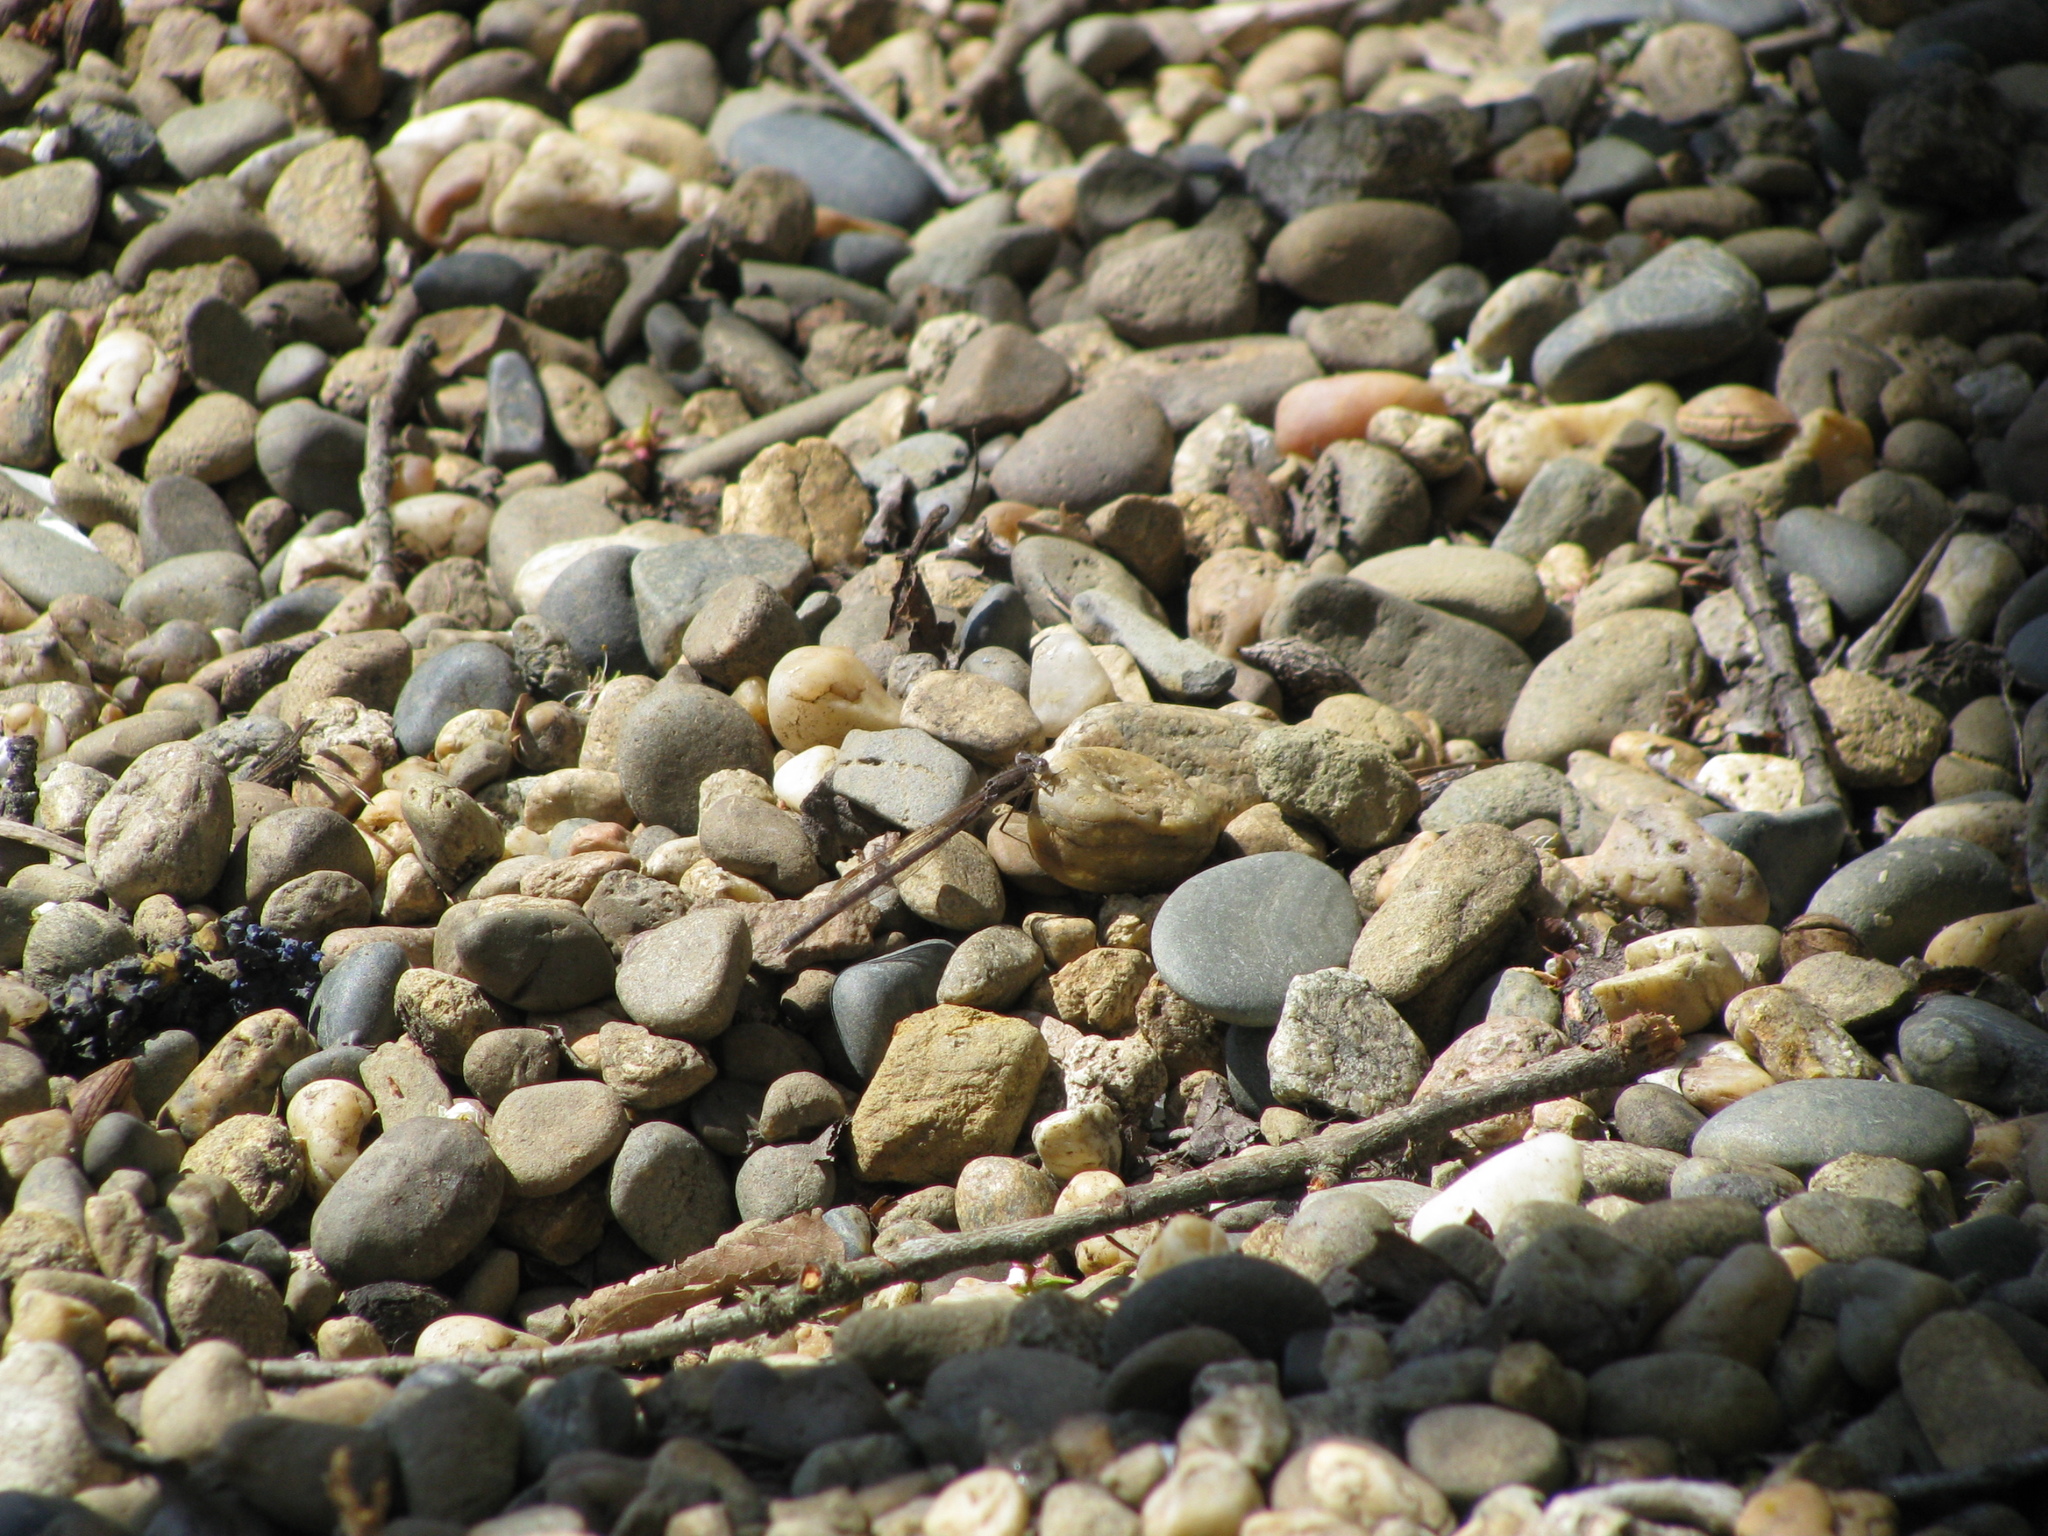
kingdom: Animalia
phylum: Arthropoda
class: Insecta
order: Odonata
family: Lestidae
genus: Sympecma
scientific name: Sympecma fusca
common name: Common winter damsel
